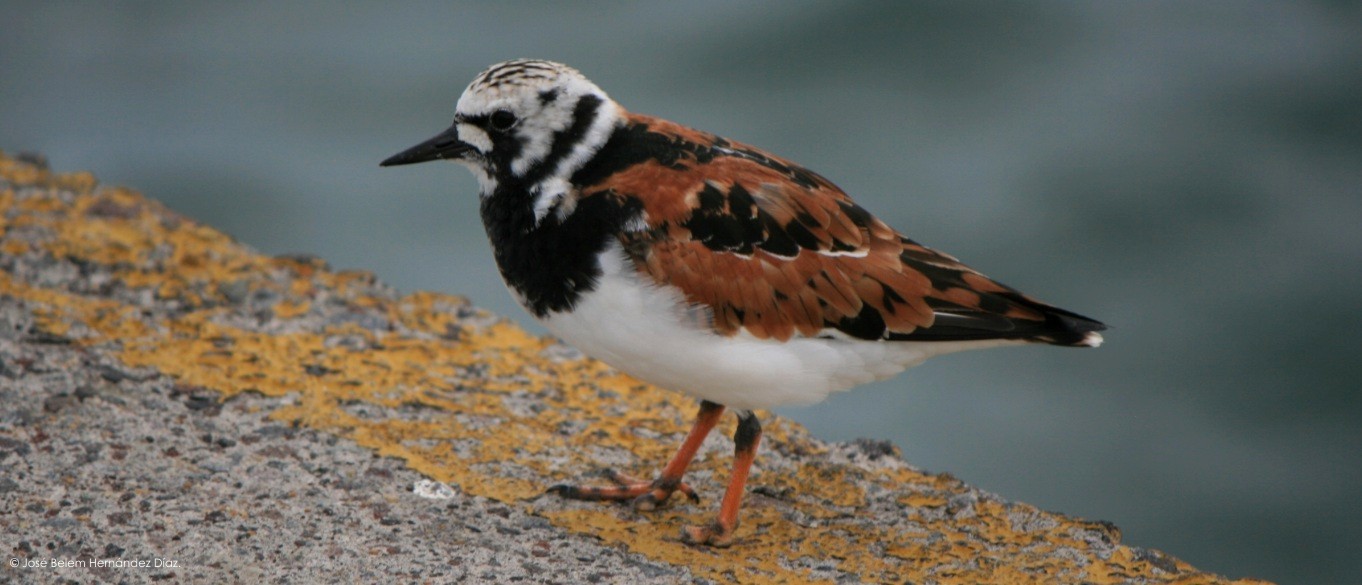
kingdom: Animalia
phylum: Chordata
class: Aves
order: Charadriiformes
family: Scolopacidae
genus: Arenaria
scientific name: Arenaria interpres
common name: Ruddy turnstone
